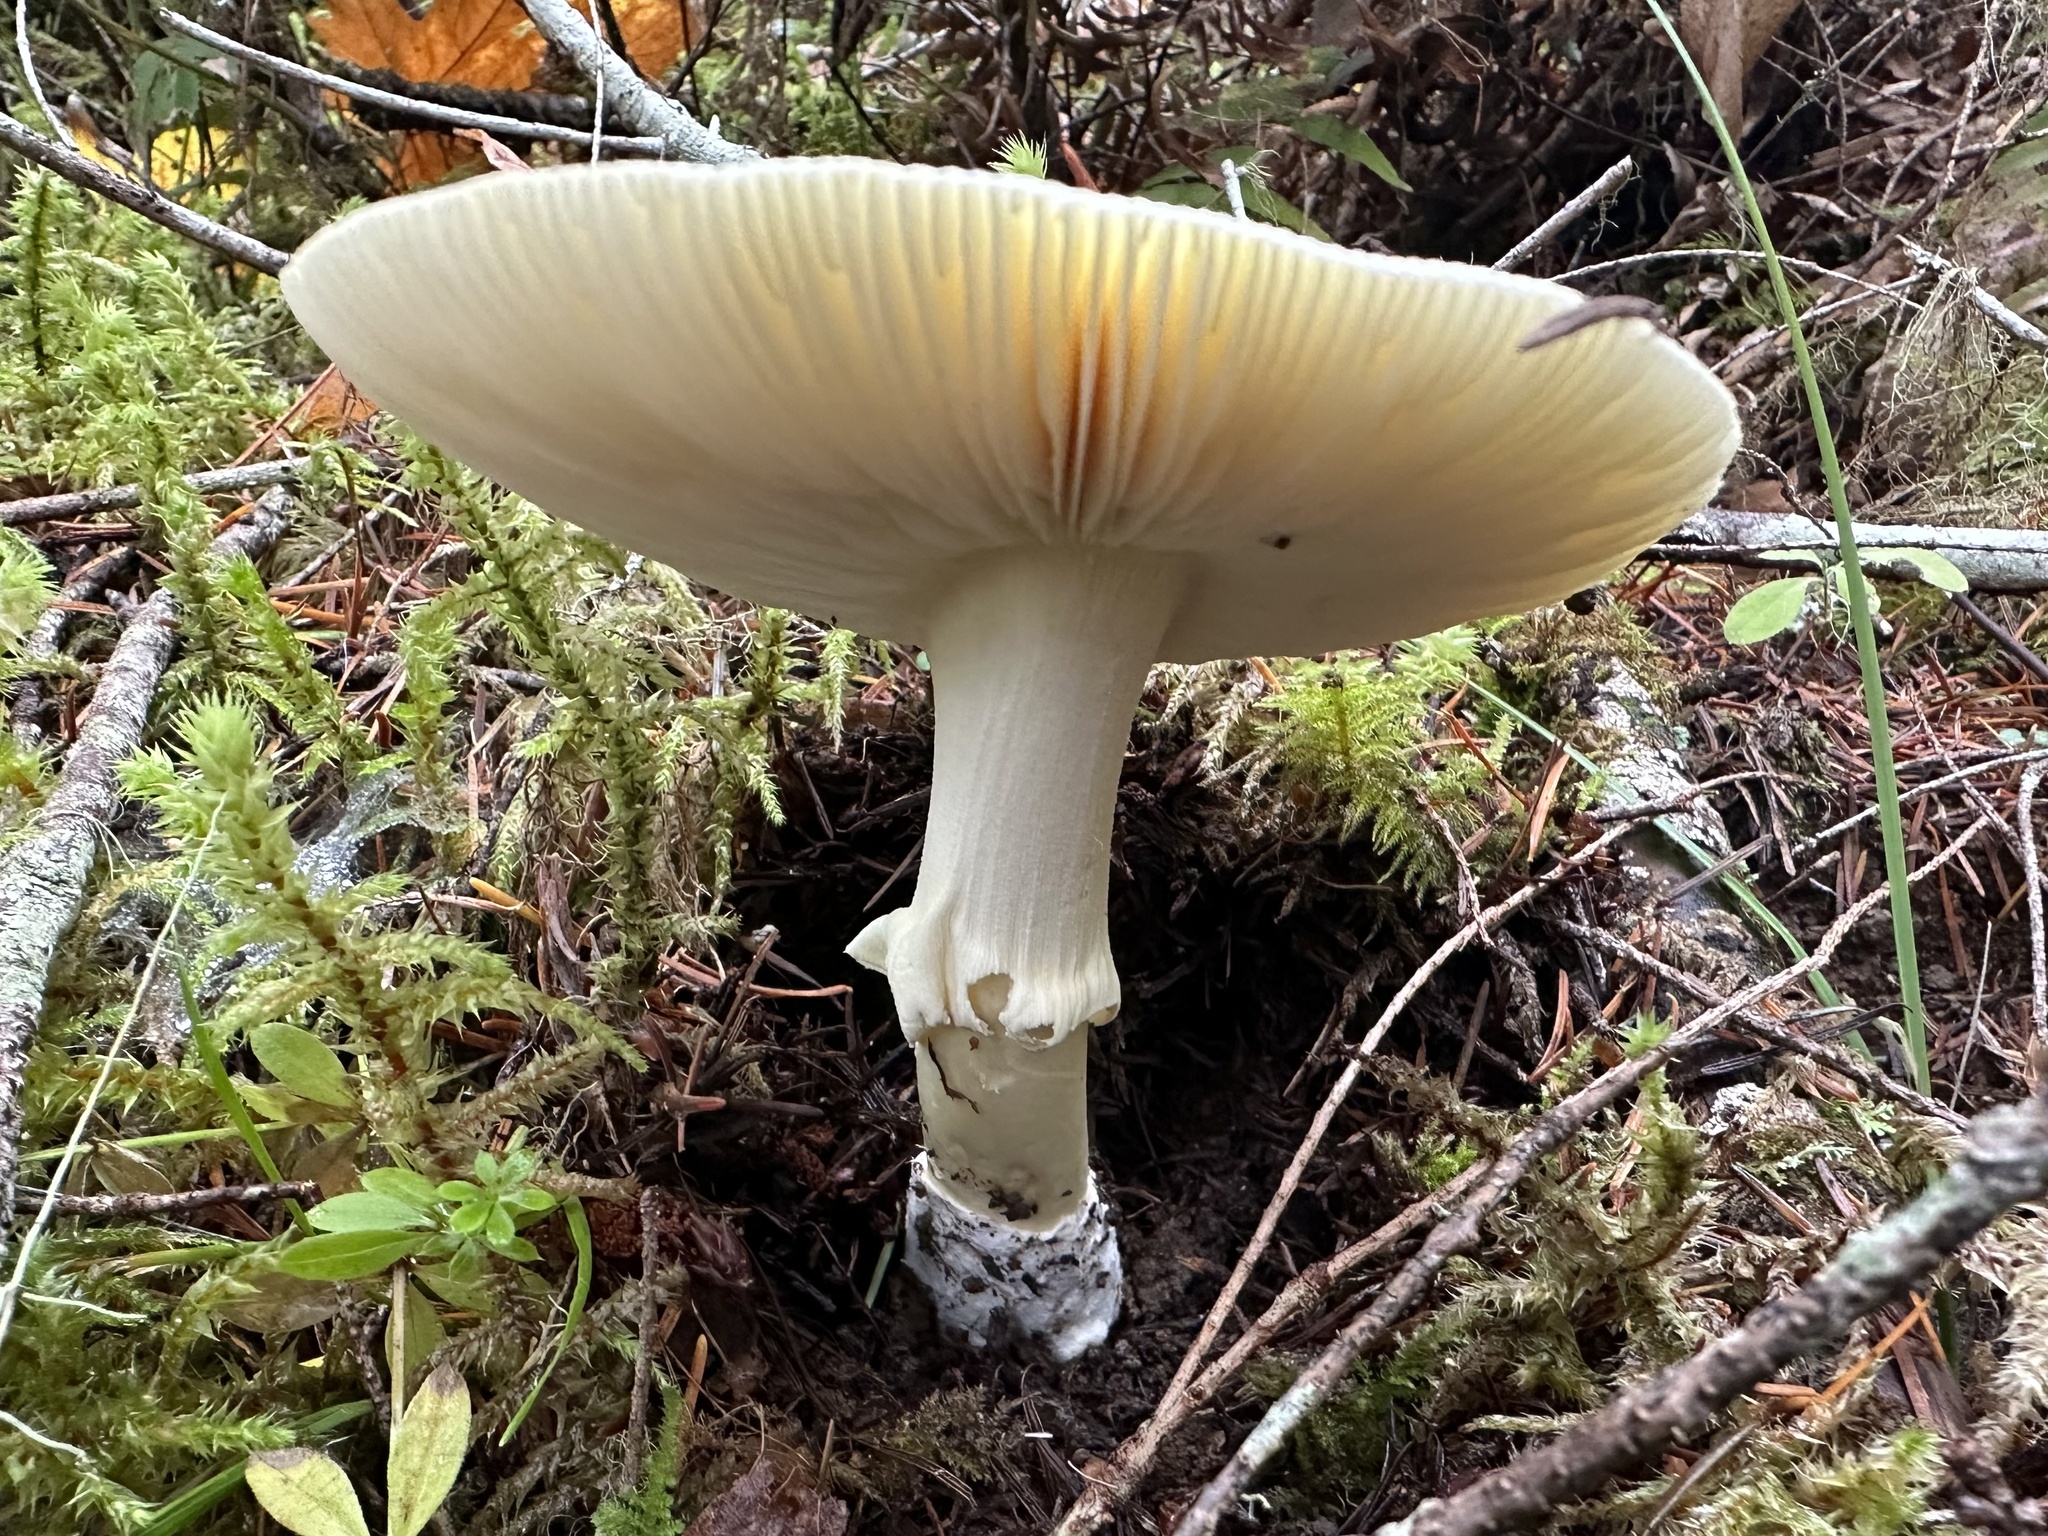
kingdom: Fungi
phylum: Basidiomycota
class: Agaricomycetes
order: Agaricales
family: Amanitaceae
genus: Amanita
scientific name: Amanita calyptroderma
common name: Coccora
